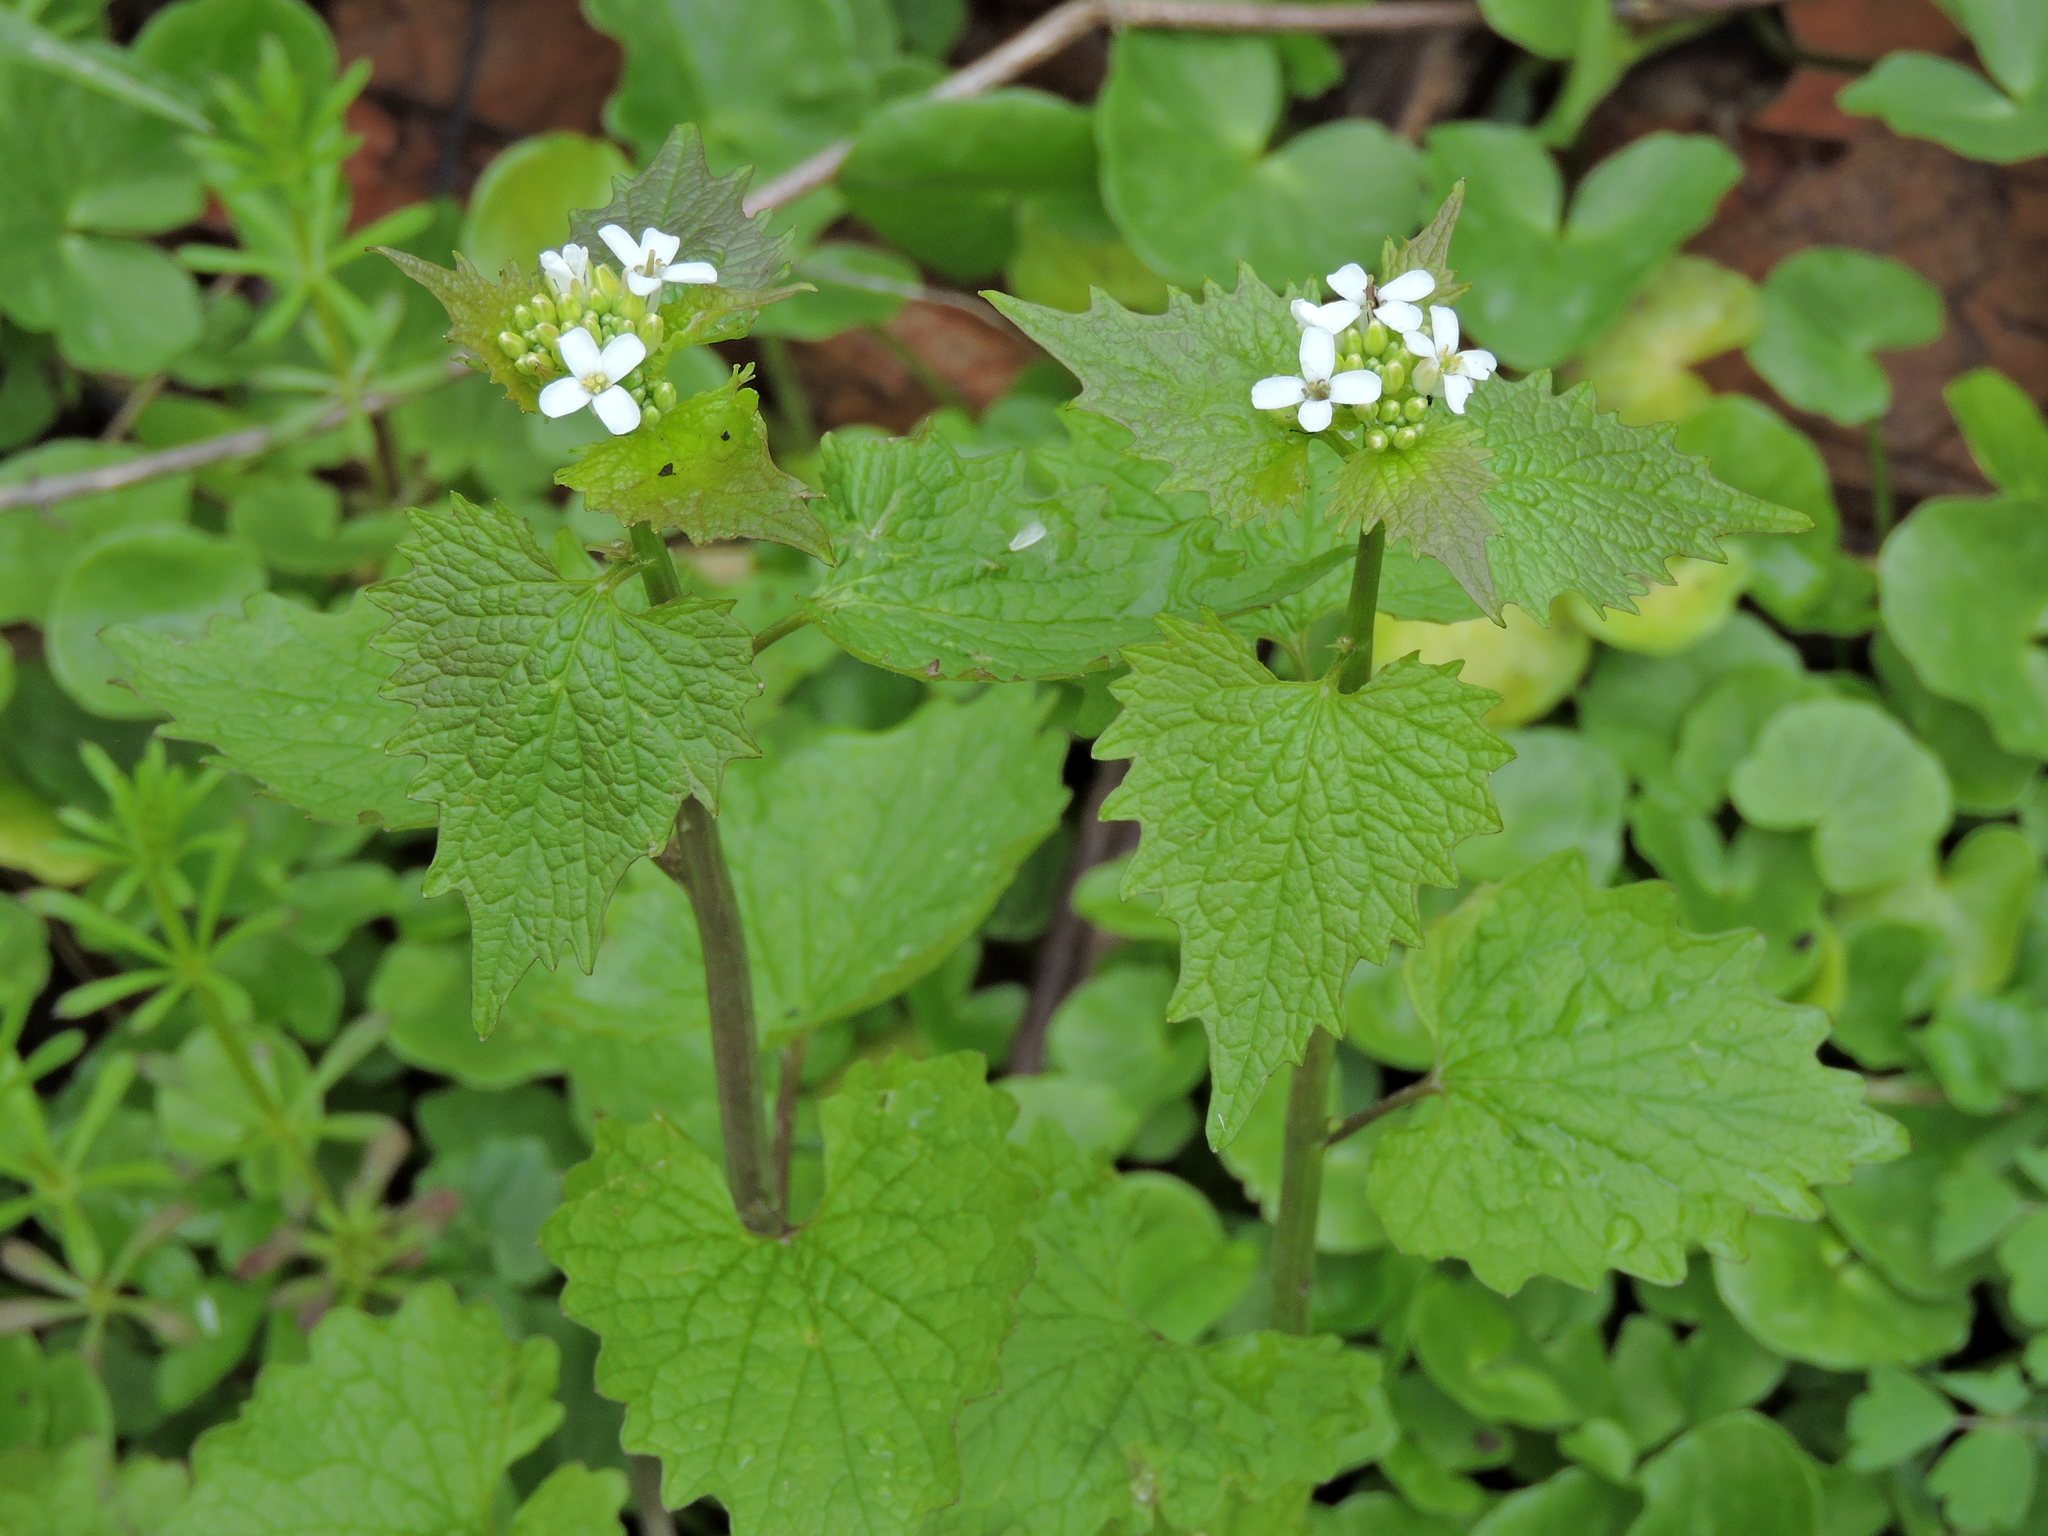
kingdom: Plantae
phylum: Tracheophyta
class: Magnoliopsida
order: Brassicales
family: Brassicaceae
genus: Alliaria
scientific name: Alliaria petiolata
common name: Garlic mustard
